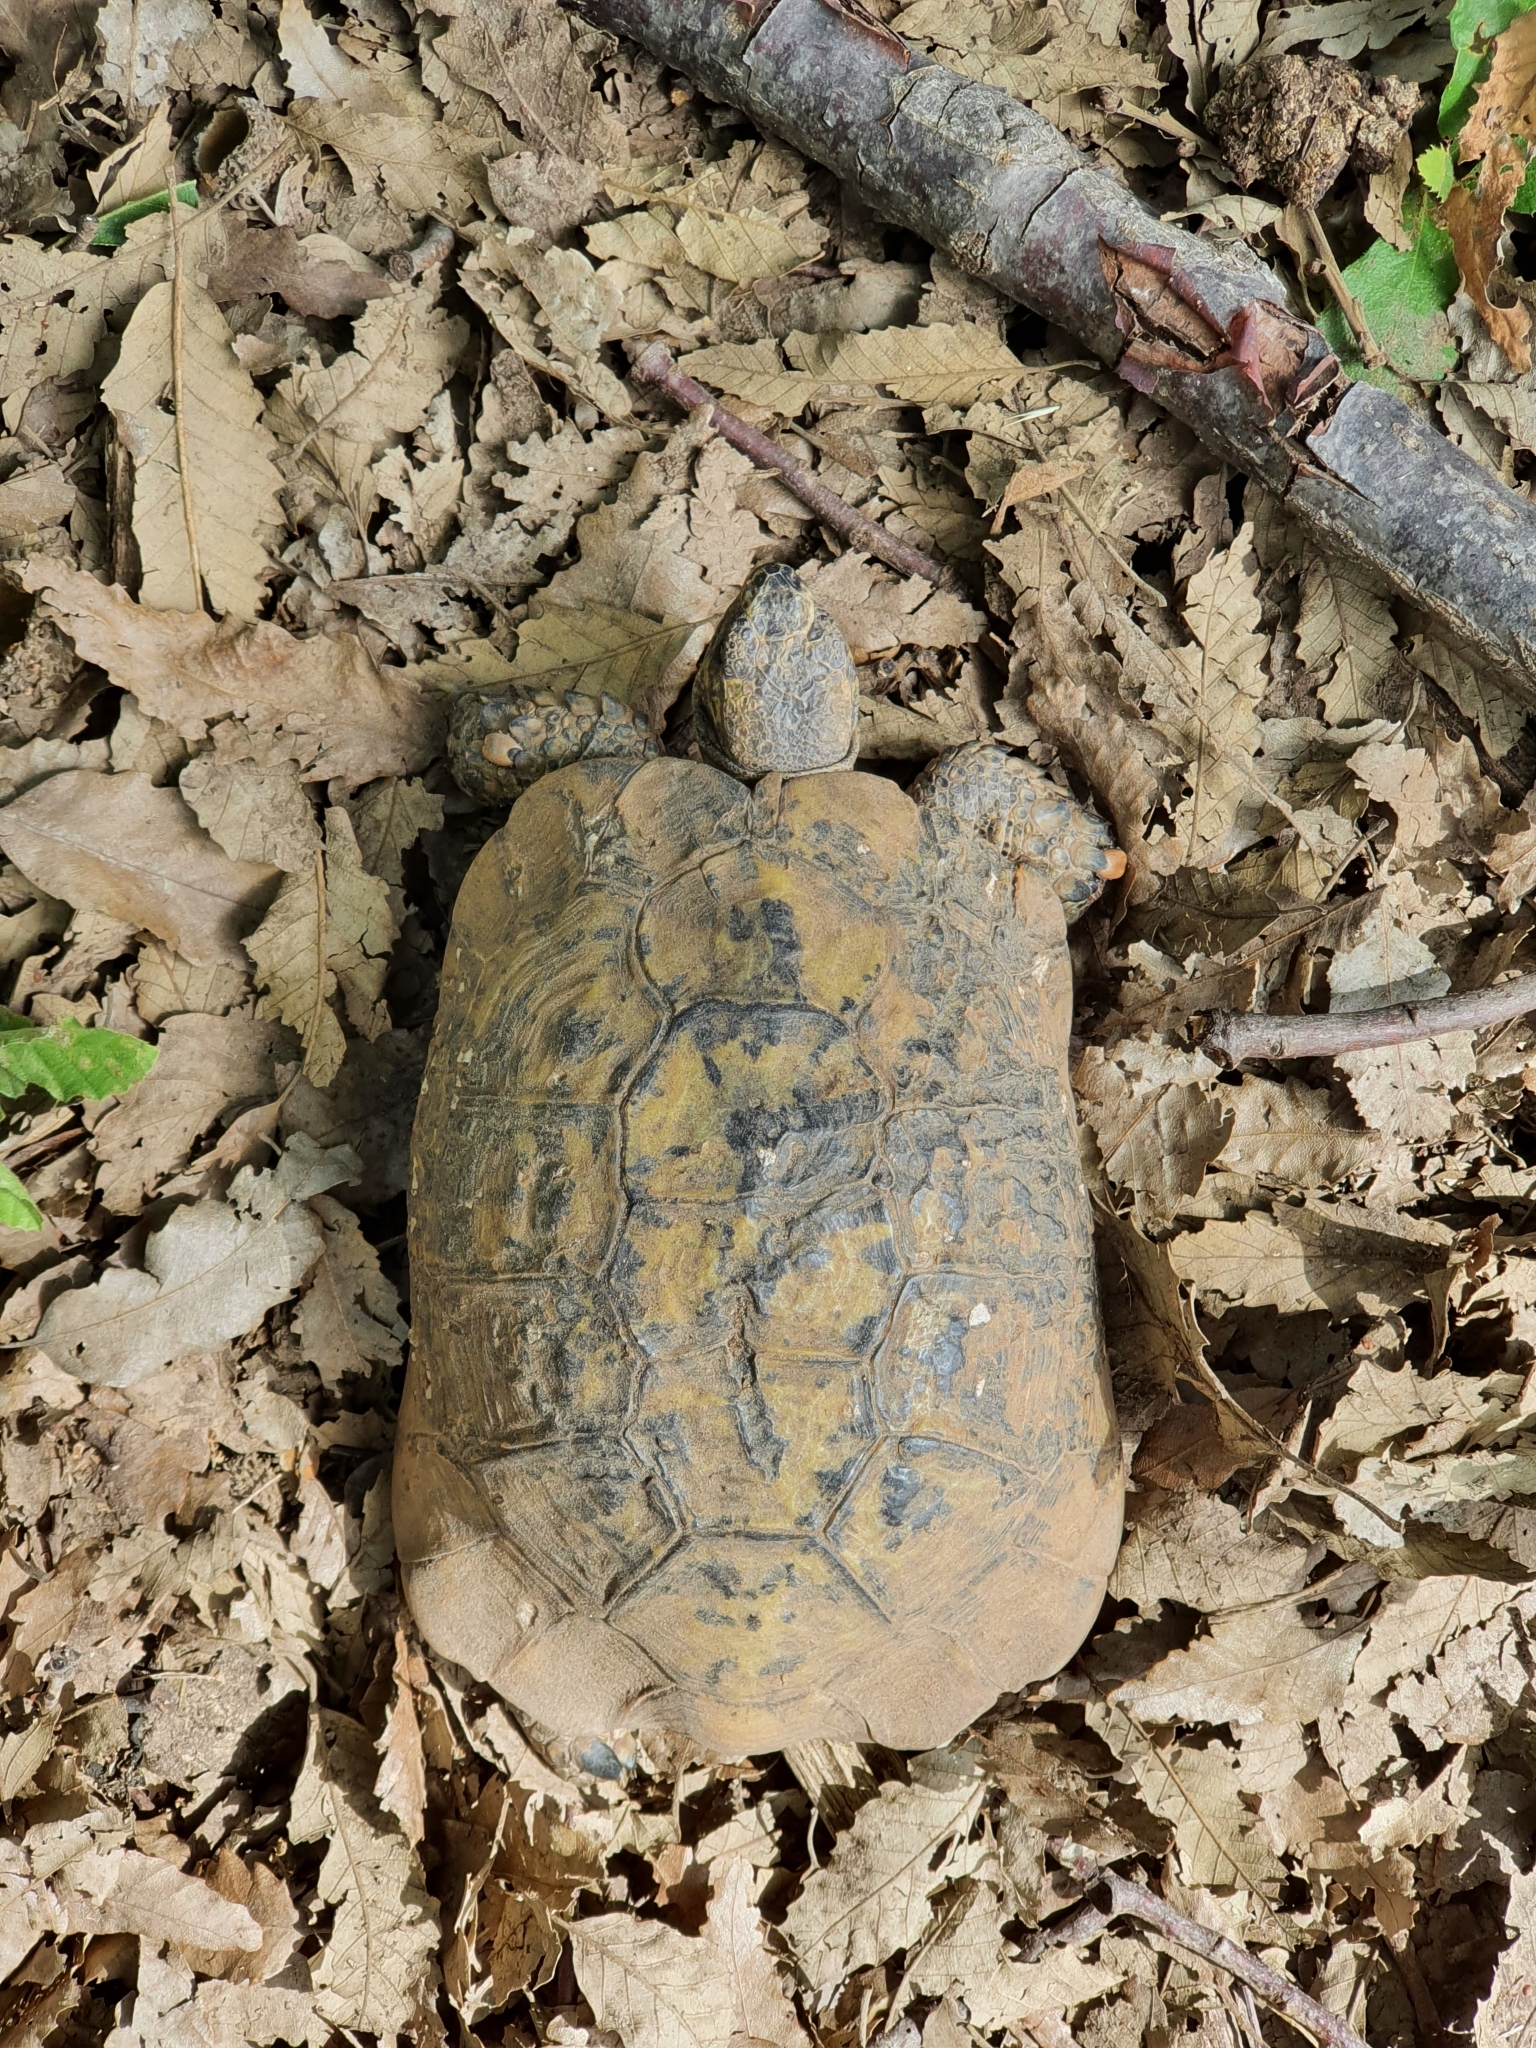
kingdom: Animalia
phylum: Chordata
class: Testudines
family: Testudinidae
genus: Testudo
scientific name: Testudo graeca
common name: Common tortoise
